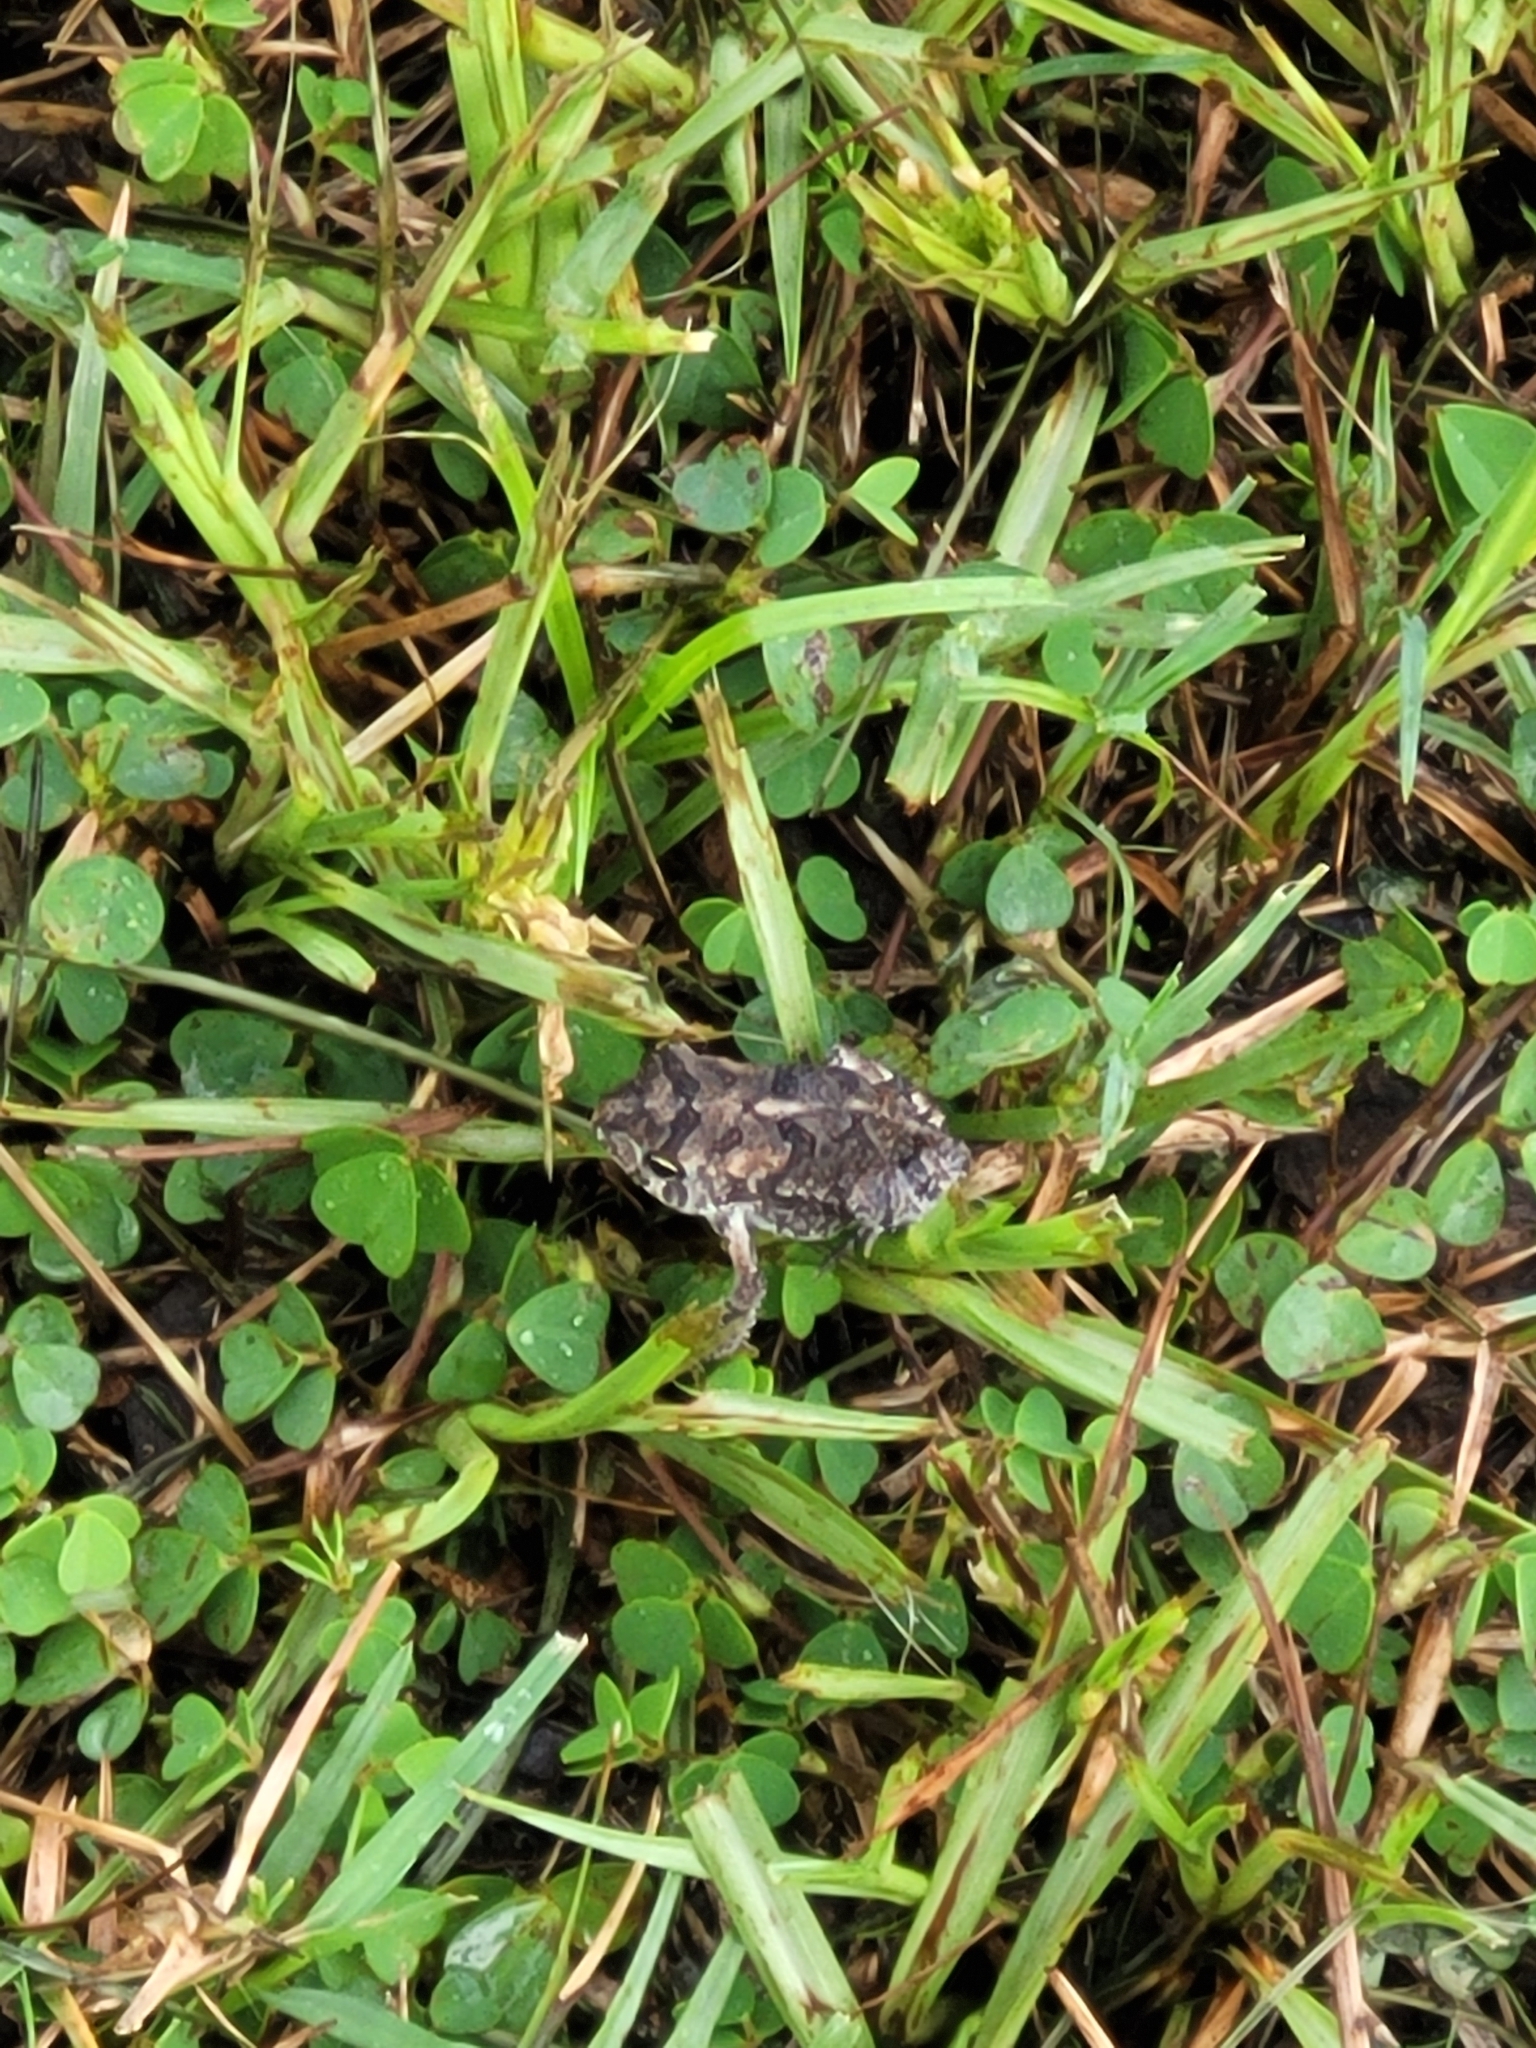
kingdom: Animalia
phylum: Chordata
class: Amphibia
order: Anura
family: Bufonidae
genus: Anaxyrus
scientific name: Anaxyrus terrestris
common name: Southern toad
